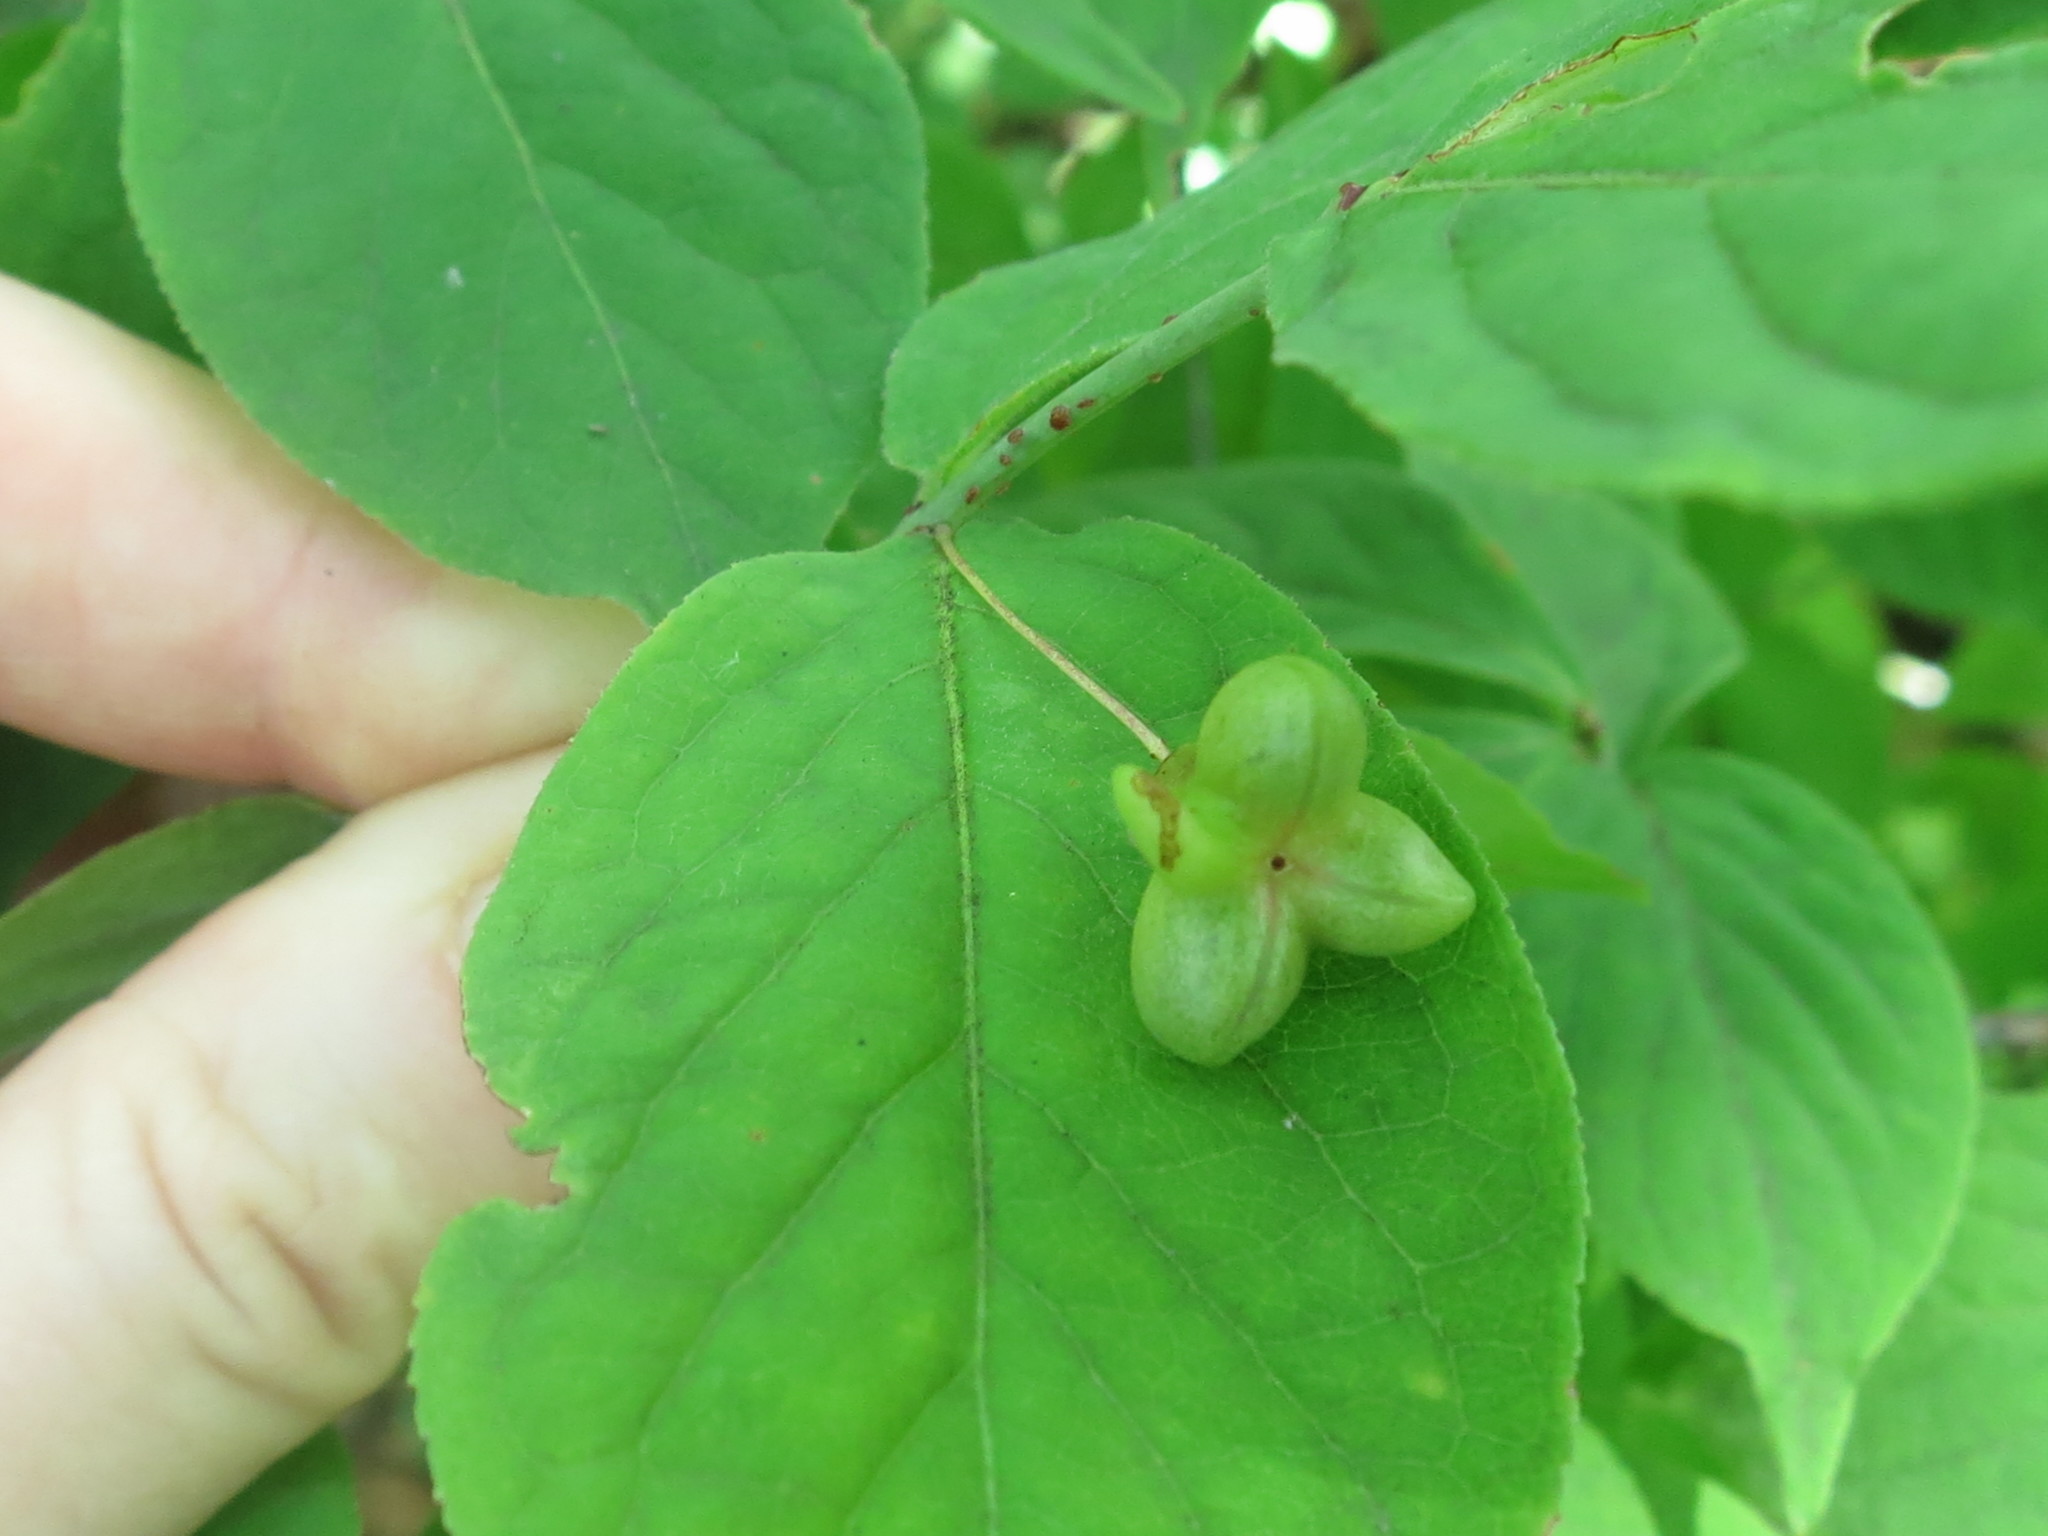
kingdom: Plantae
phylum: Tracheophyta
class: Magnoliopsida
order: Celastrales
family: Celastraceae
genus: Euonymus
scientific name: Euonymus verrucosus
